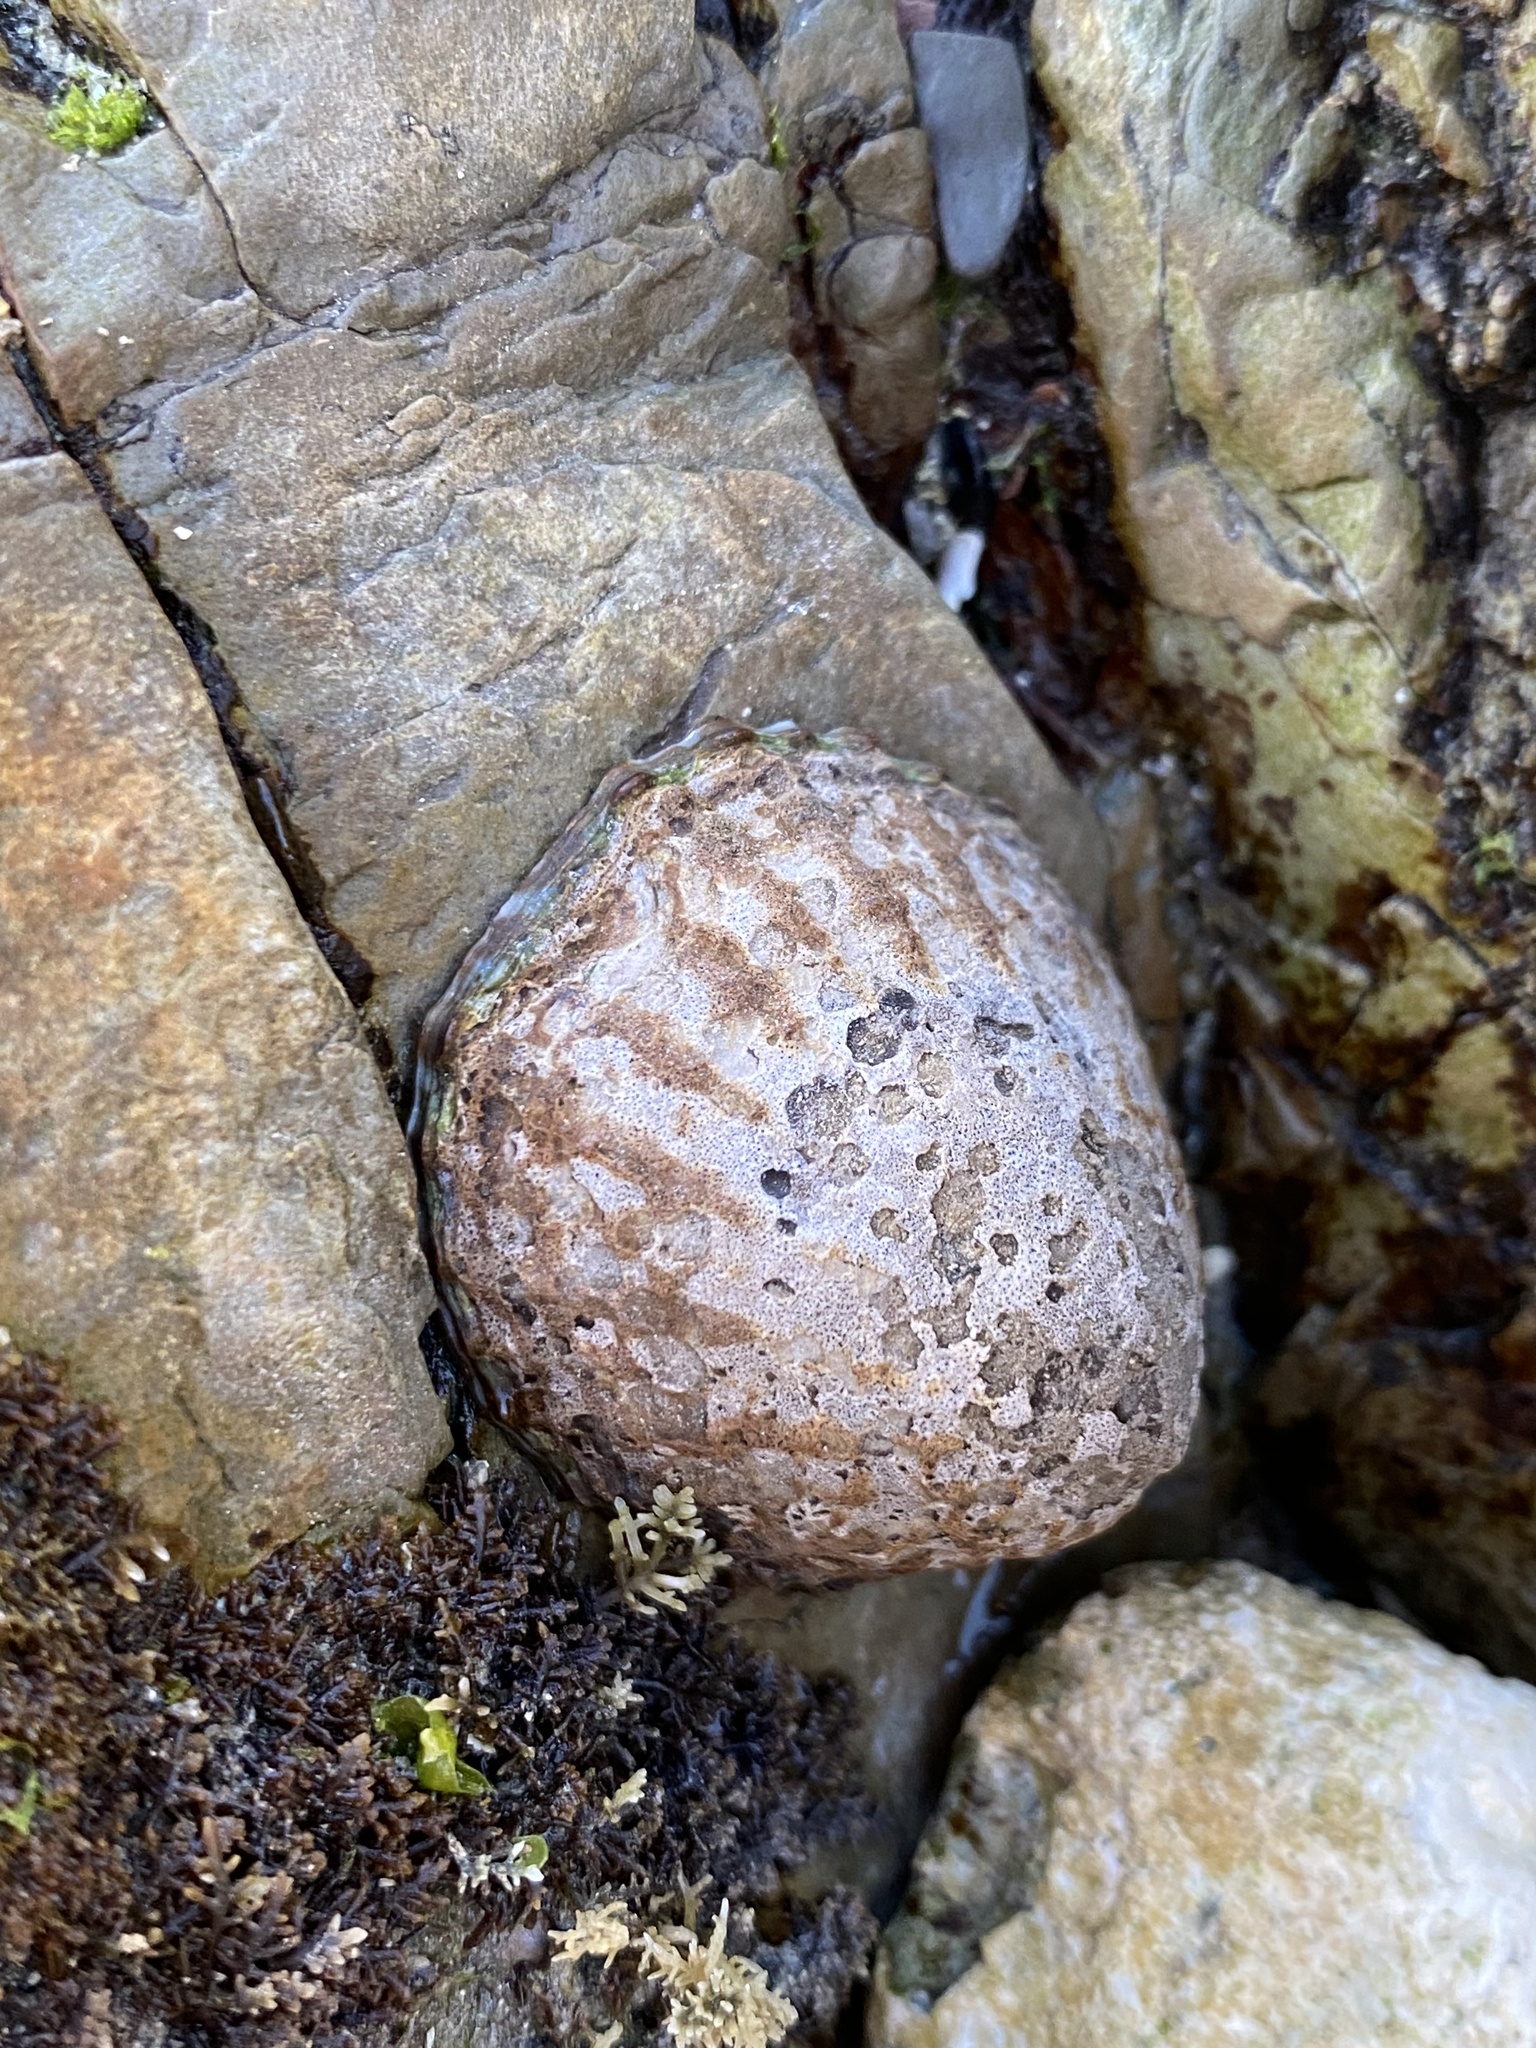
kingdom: Animalia
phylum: Mollusca
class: Gastropoda
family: Nacellidae
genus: Cellana
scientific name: Cellana denticulata
